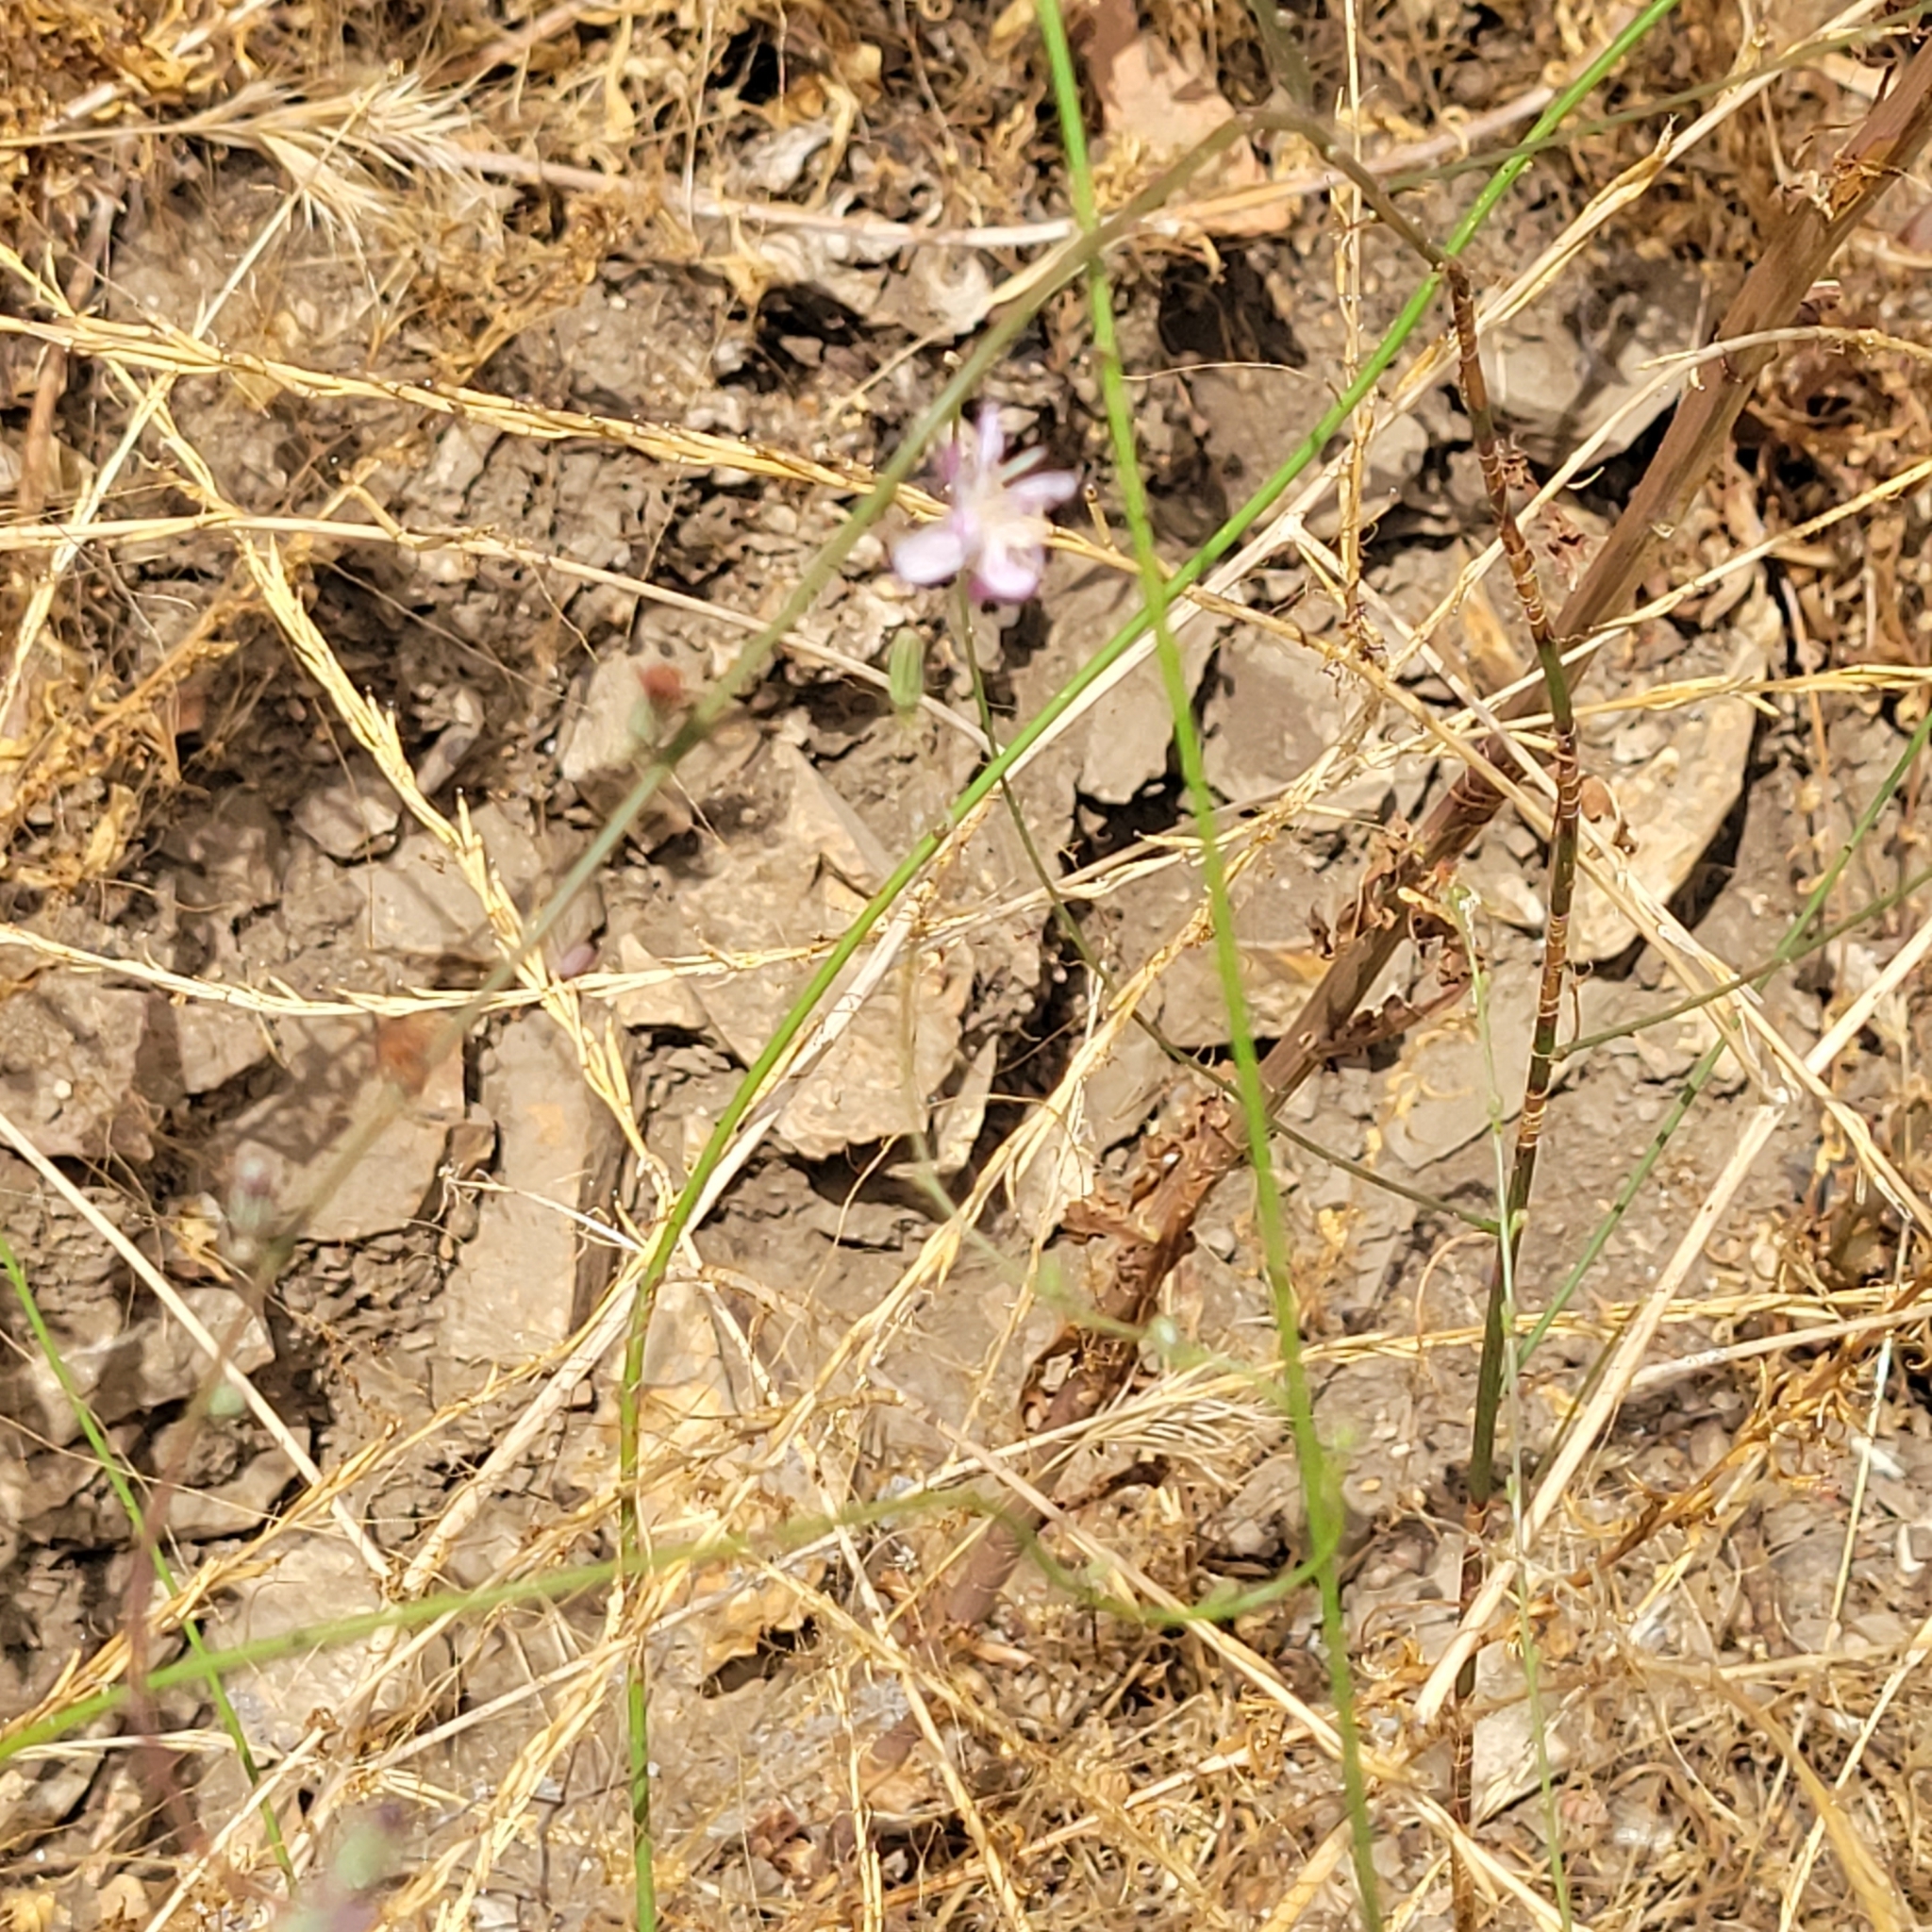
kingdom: Plantae
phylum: Tracheophyta
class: Magnoliopsida
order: Asterales
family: Asteraceae
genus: Stephanomeria
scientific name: Stephanomeria virgata
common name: Virgate wirelettuce
